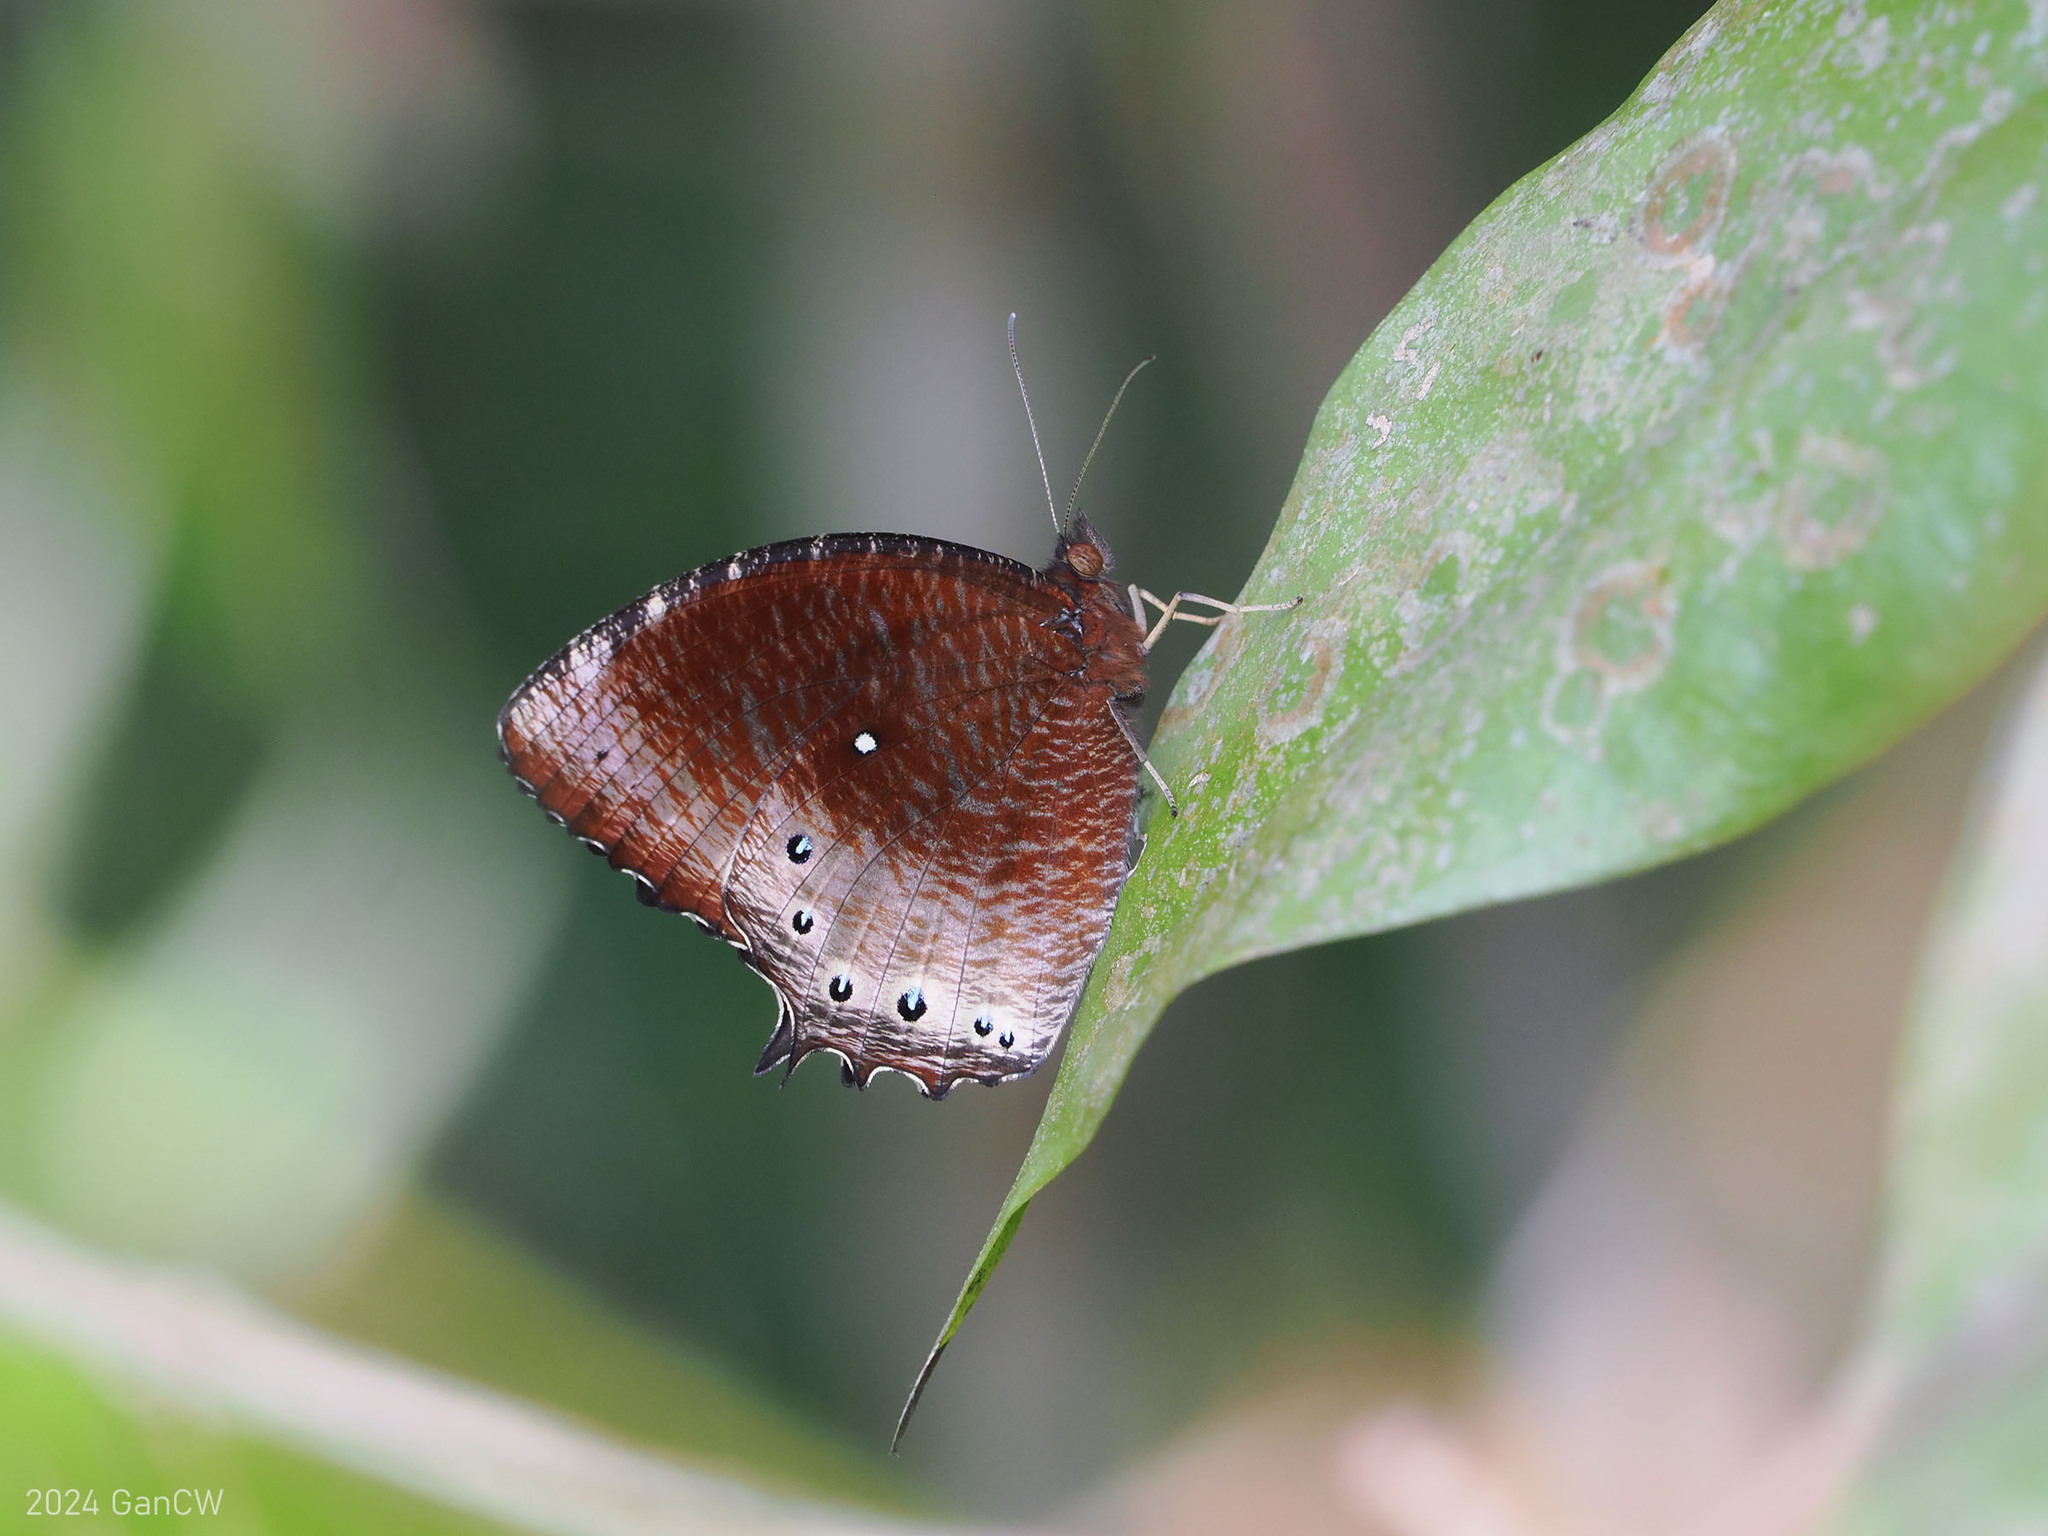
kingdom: Animalia
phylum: Arthropoda
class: Insecta
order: Lepidoptera
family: Nymphalidae
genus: Elymnias
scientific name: Elymnias panthera
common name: Tawny palmfly
